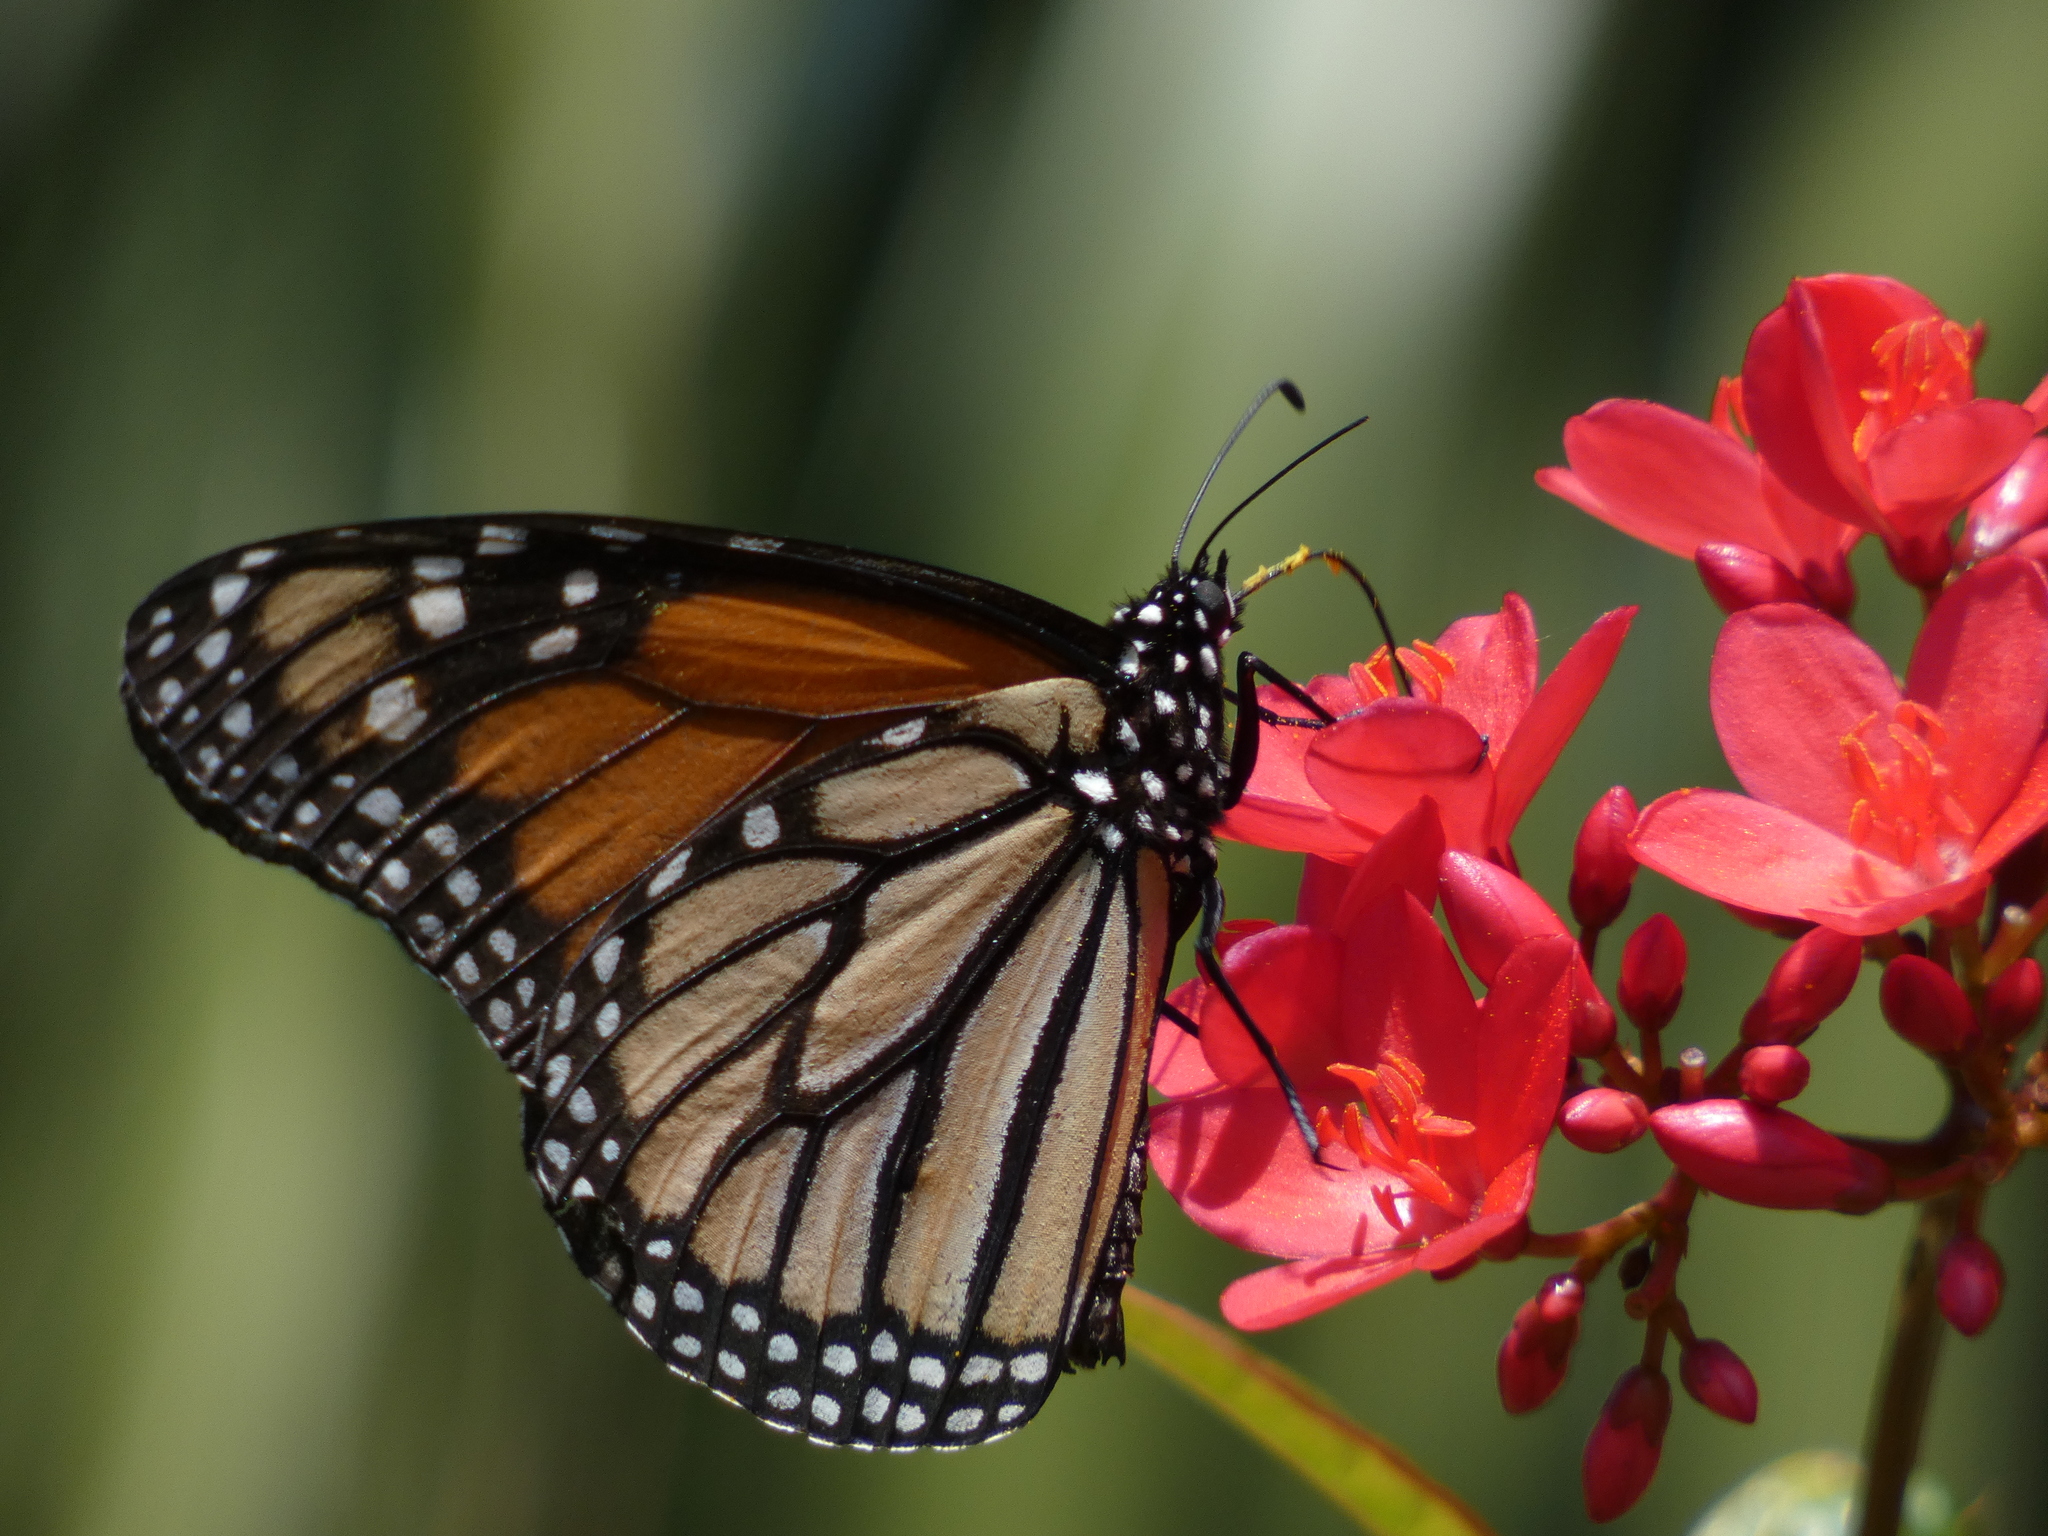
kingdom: Animalia
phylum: Arthropoda
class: Insecta
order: Lepidoptera
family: Nymphalidae
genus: Danaus
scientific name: Danaus plexippus
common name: Monarch
